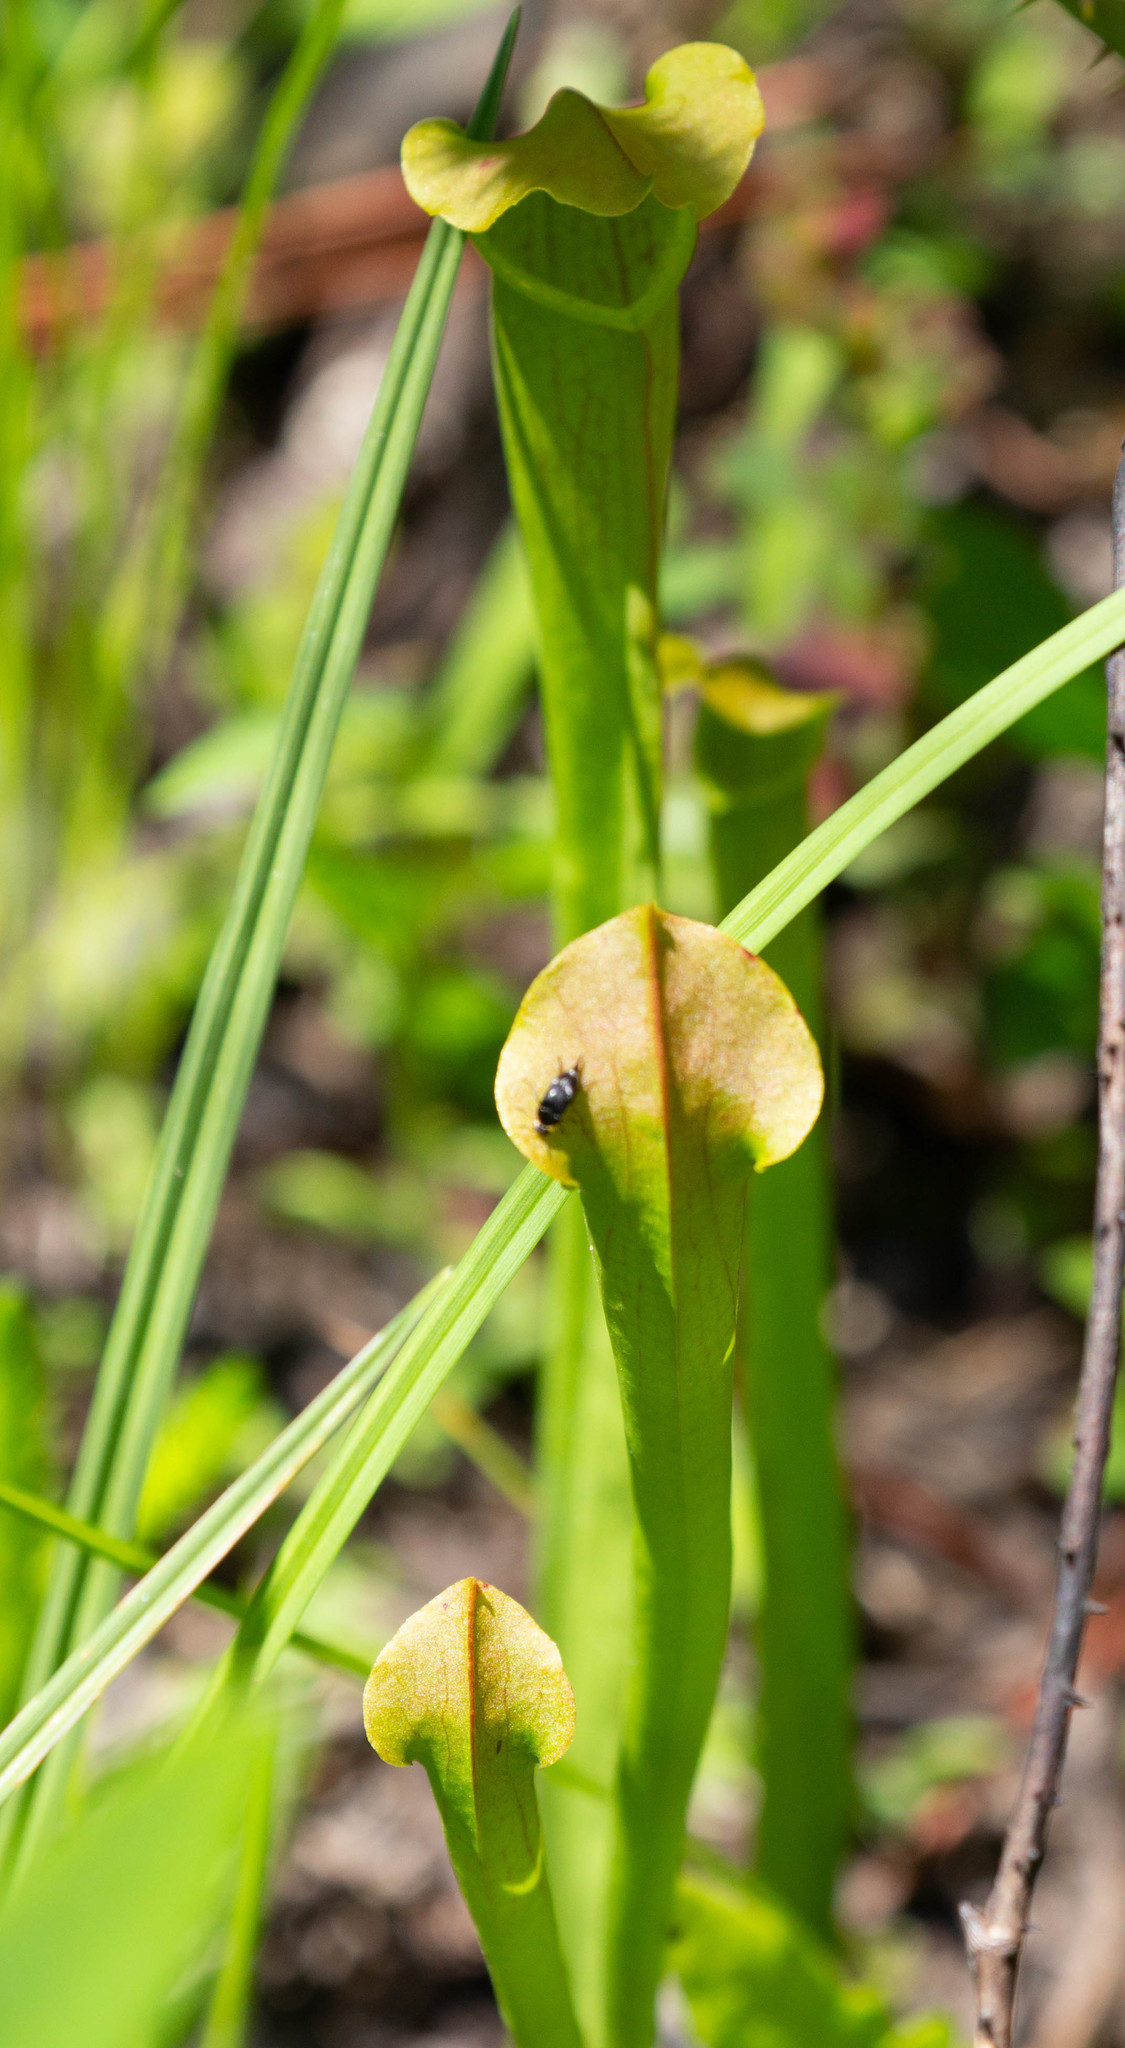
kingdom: Plantae
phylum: Tracheophyta
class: Magnoliopsida
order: Ericales
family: Sarraceniaceae
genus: Sarracenia
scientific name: Sarracenia alata
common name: Yellow trumpets
